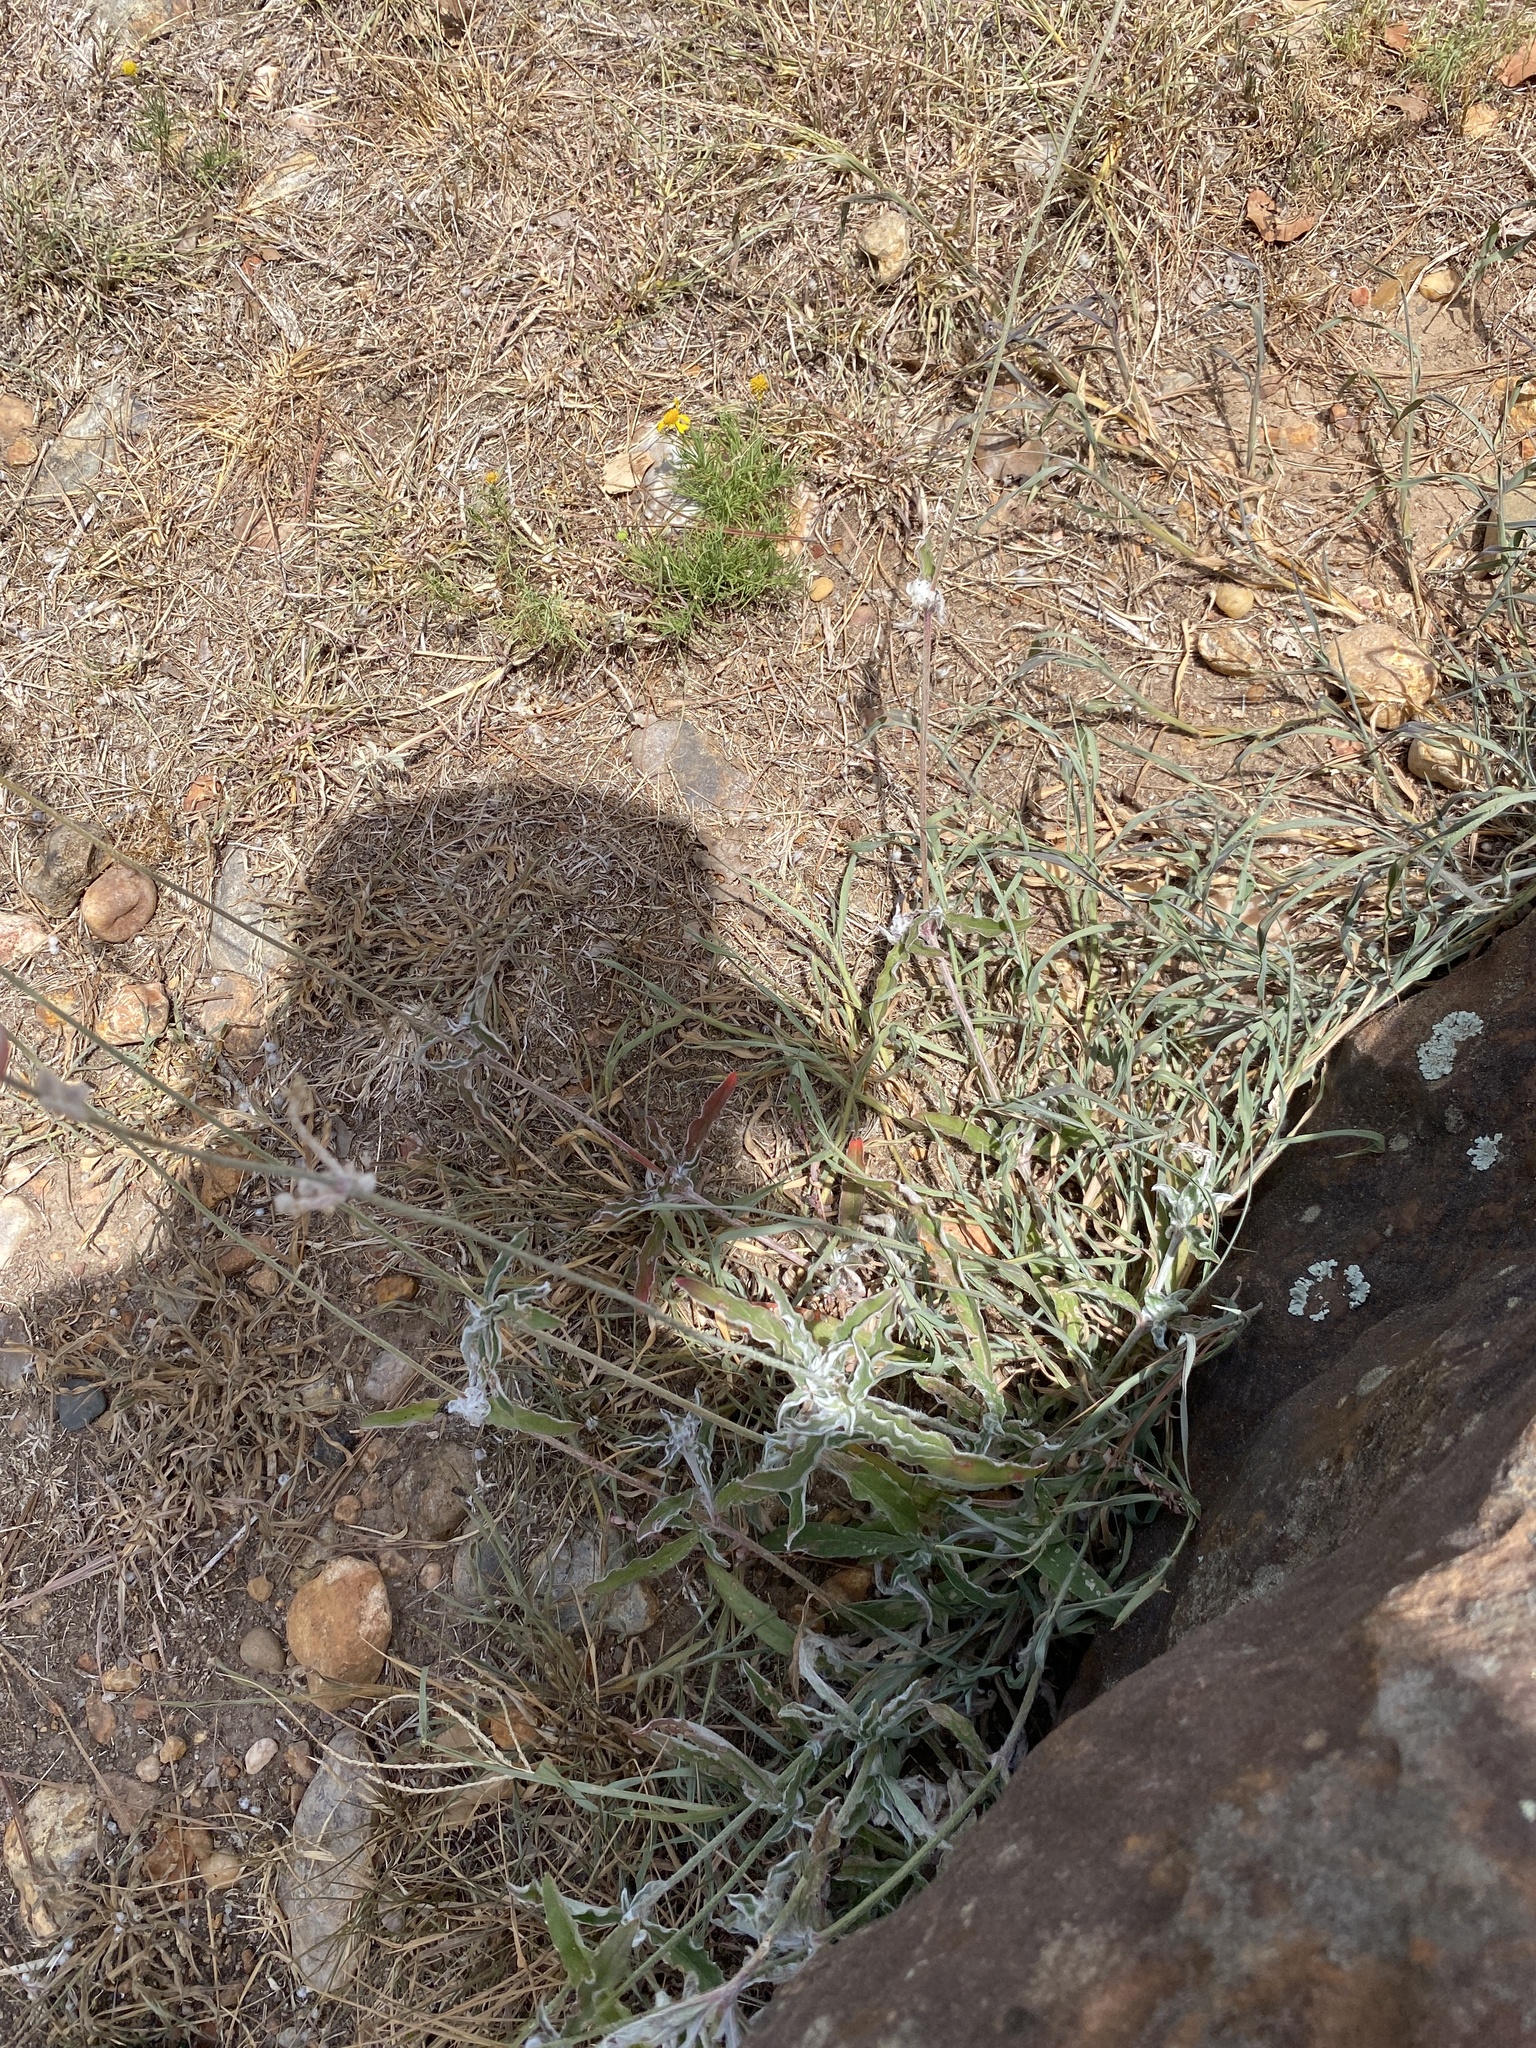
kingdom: Plantae
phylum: Tracheophyta
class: Magnoliopsida
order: Caryophyllales
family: Amaranthaceae
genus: Froelichia
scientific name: Froelichia floridana
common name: Florida snake-cotton
